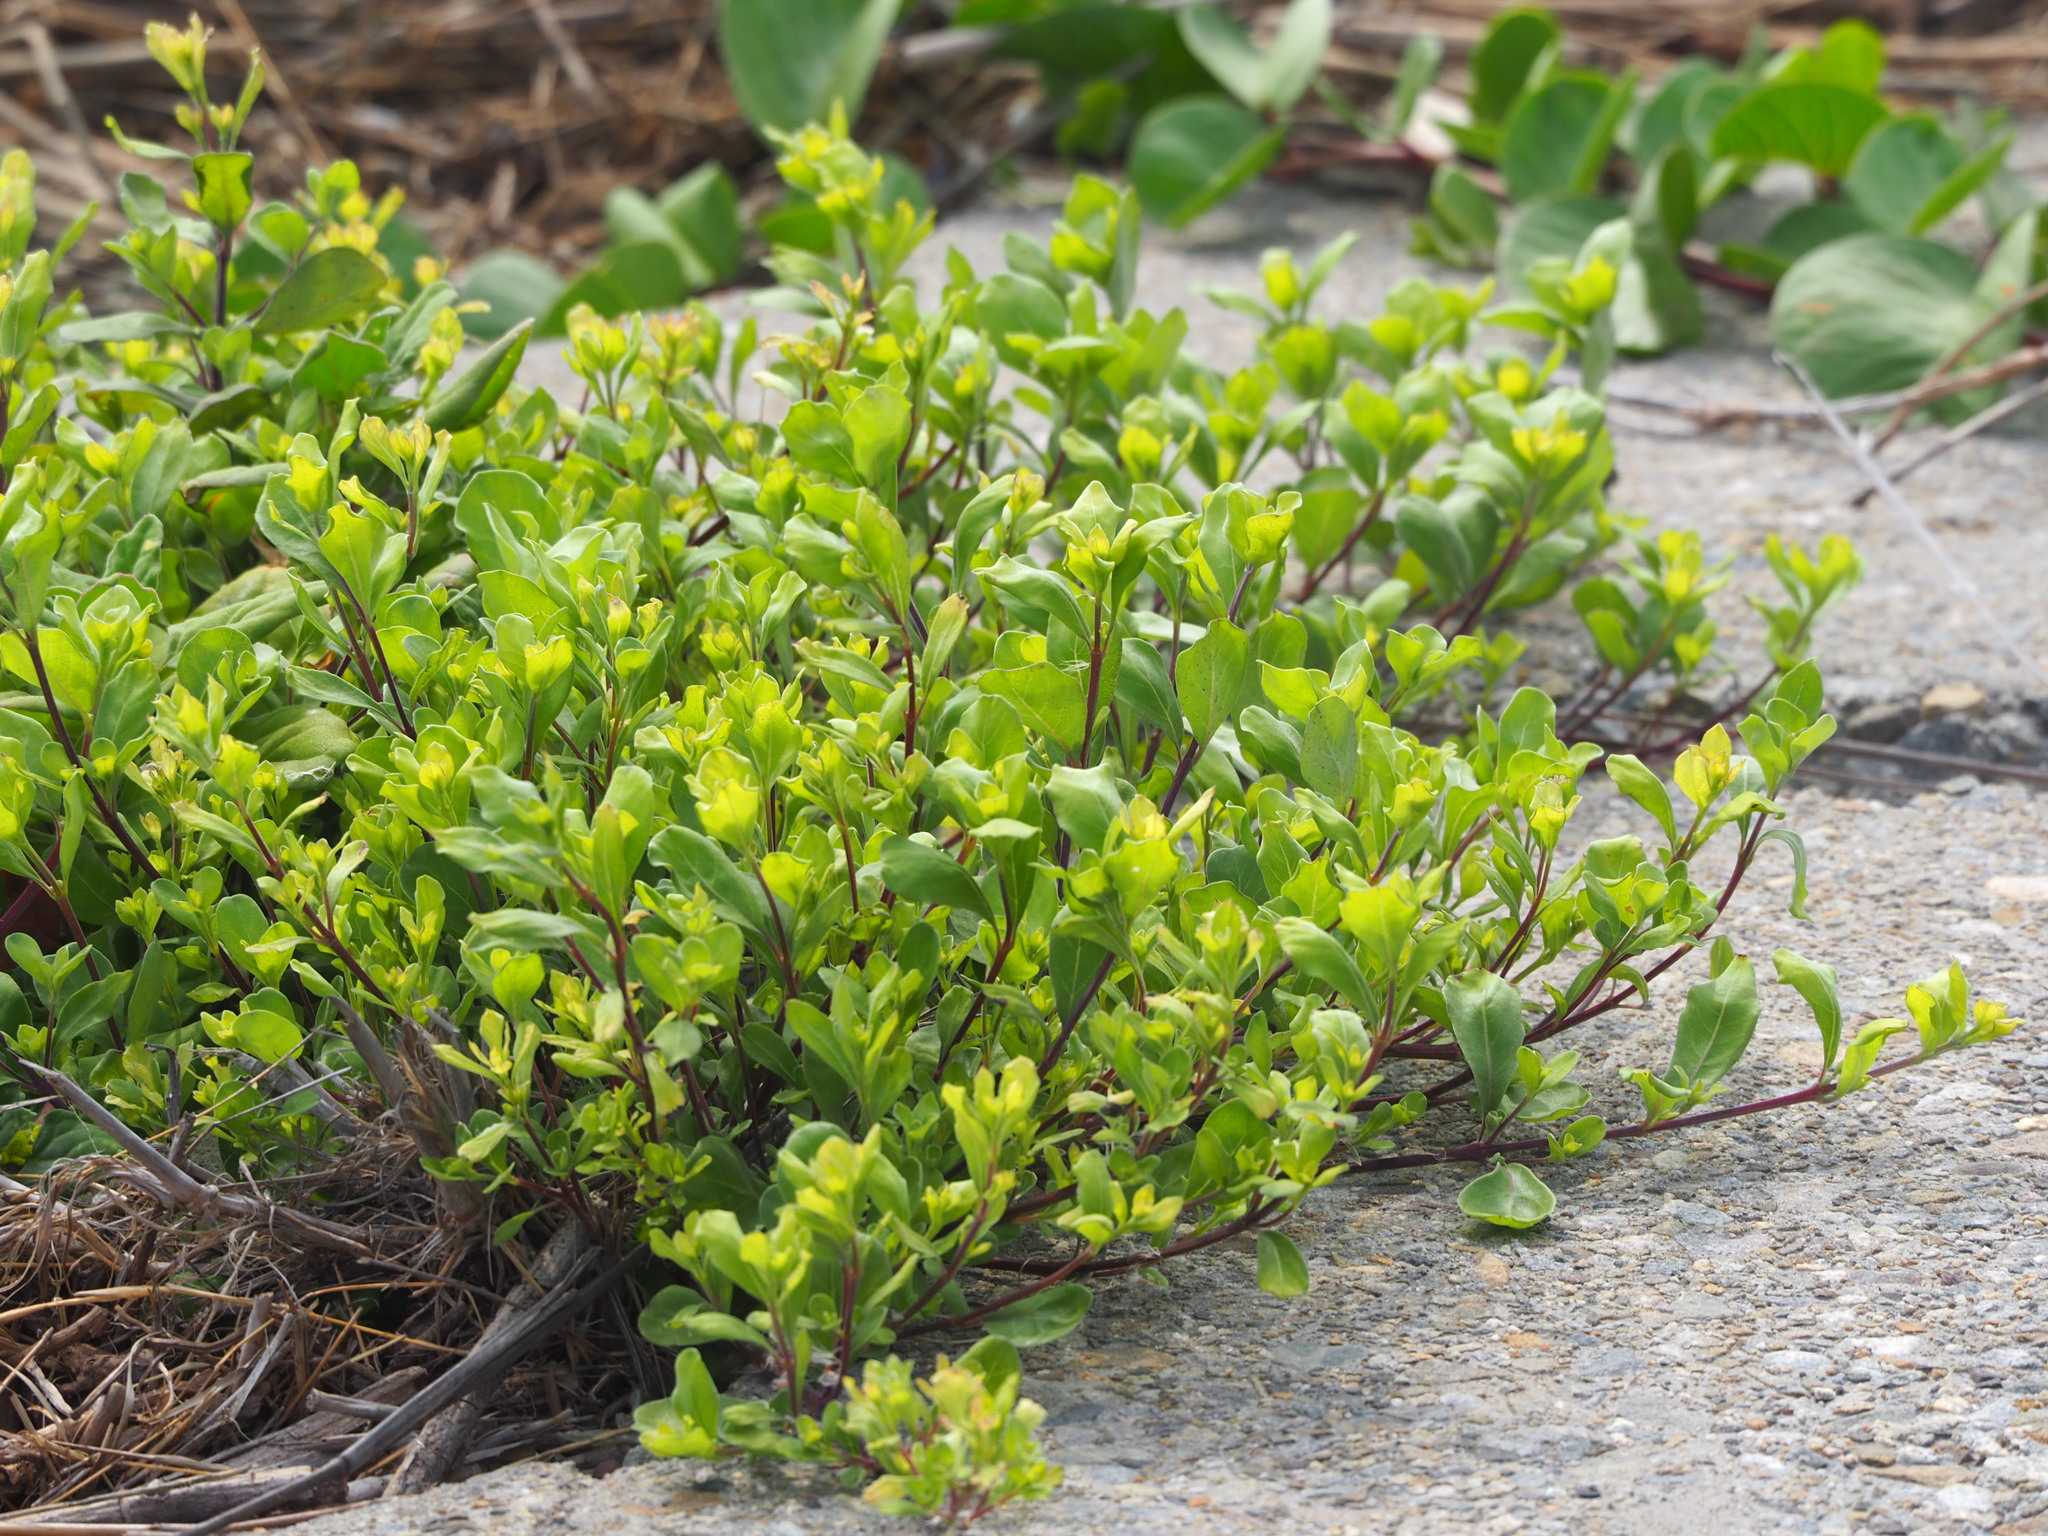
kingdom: Plantae
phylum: Tracheophyta
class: Magnoliopsida
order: Lamiales
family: Lamiaceae
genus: Vitex
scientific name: Vitex rotundifolia
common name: Beach vitex
